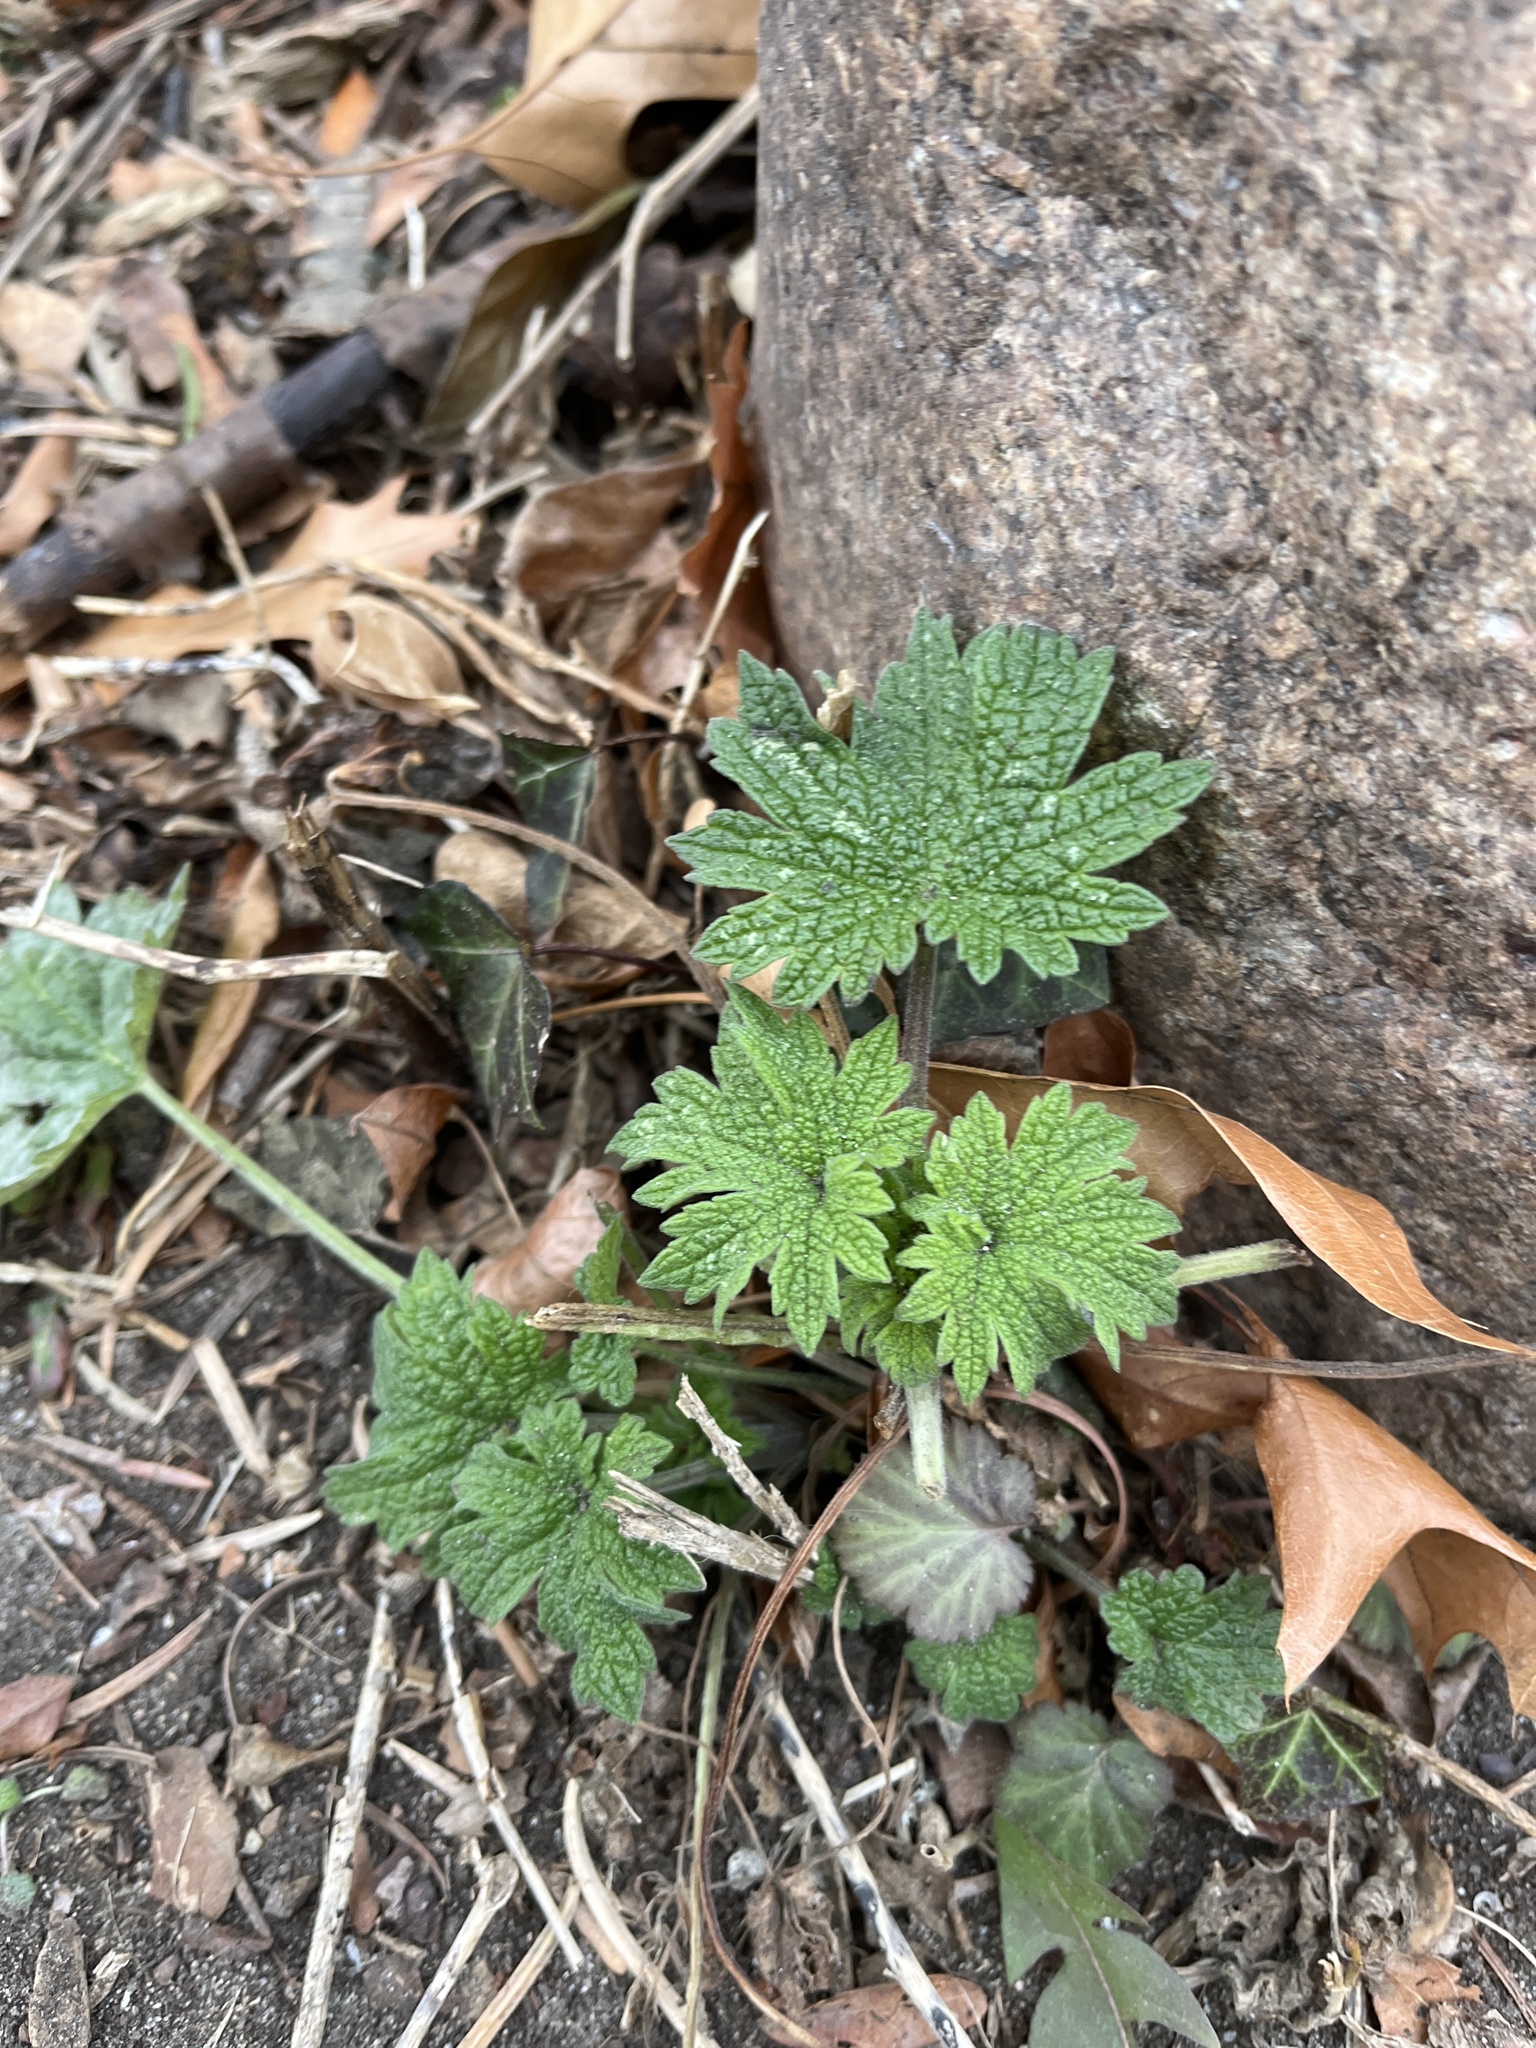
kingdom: Plantae
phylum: Tracheophyta
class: Magnoliopsida
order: Lamiales
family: Lamiaceae
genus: Leonurus
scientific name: Leonurus cardiaca
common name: Motherwort
